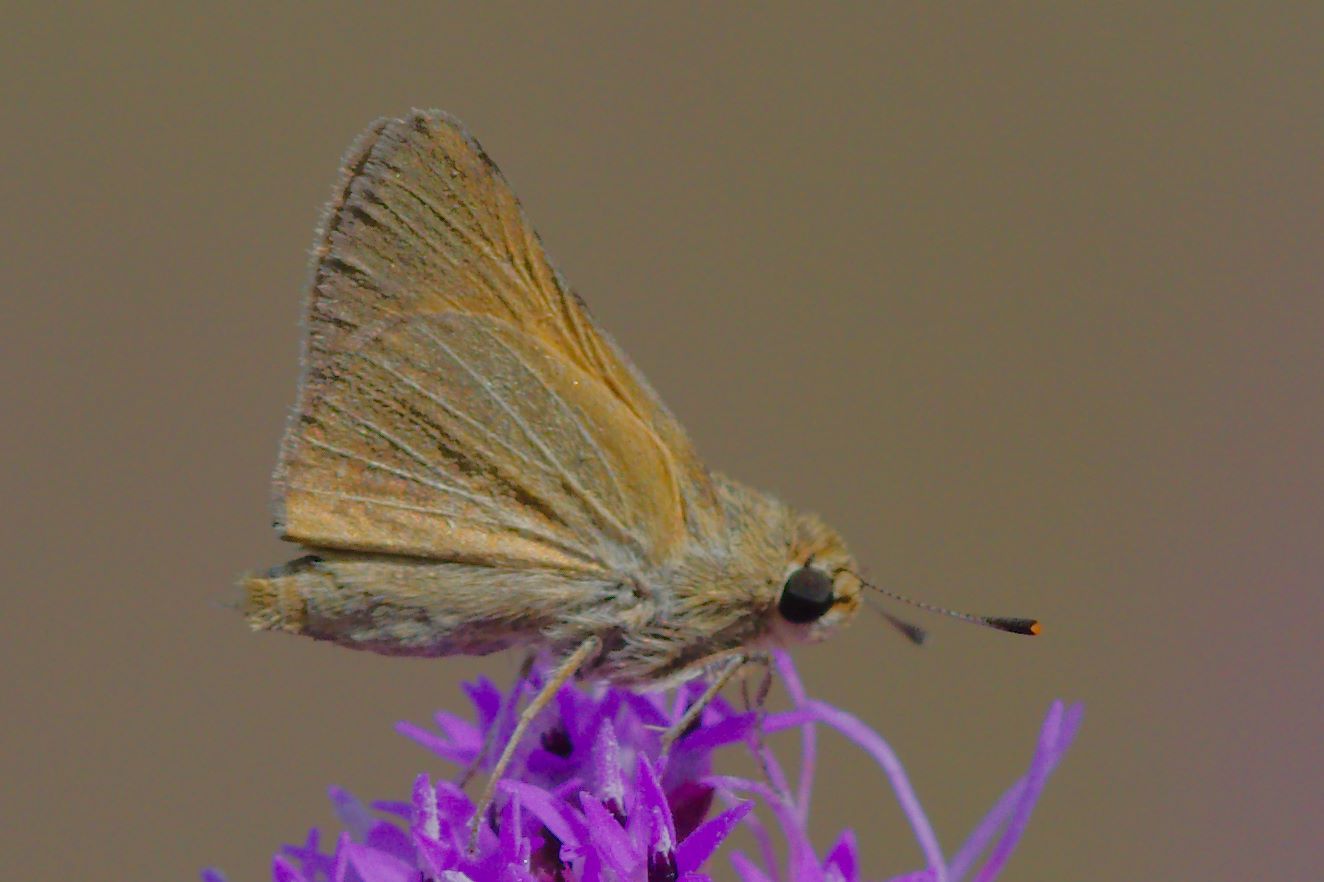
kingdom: Animalia
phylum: Arthropoda
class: Insecta
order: Lepidoptera
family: Hesperiidae
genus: Atrytone
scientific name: Atrytone arogos
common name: Arogos skipper
